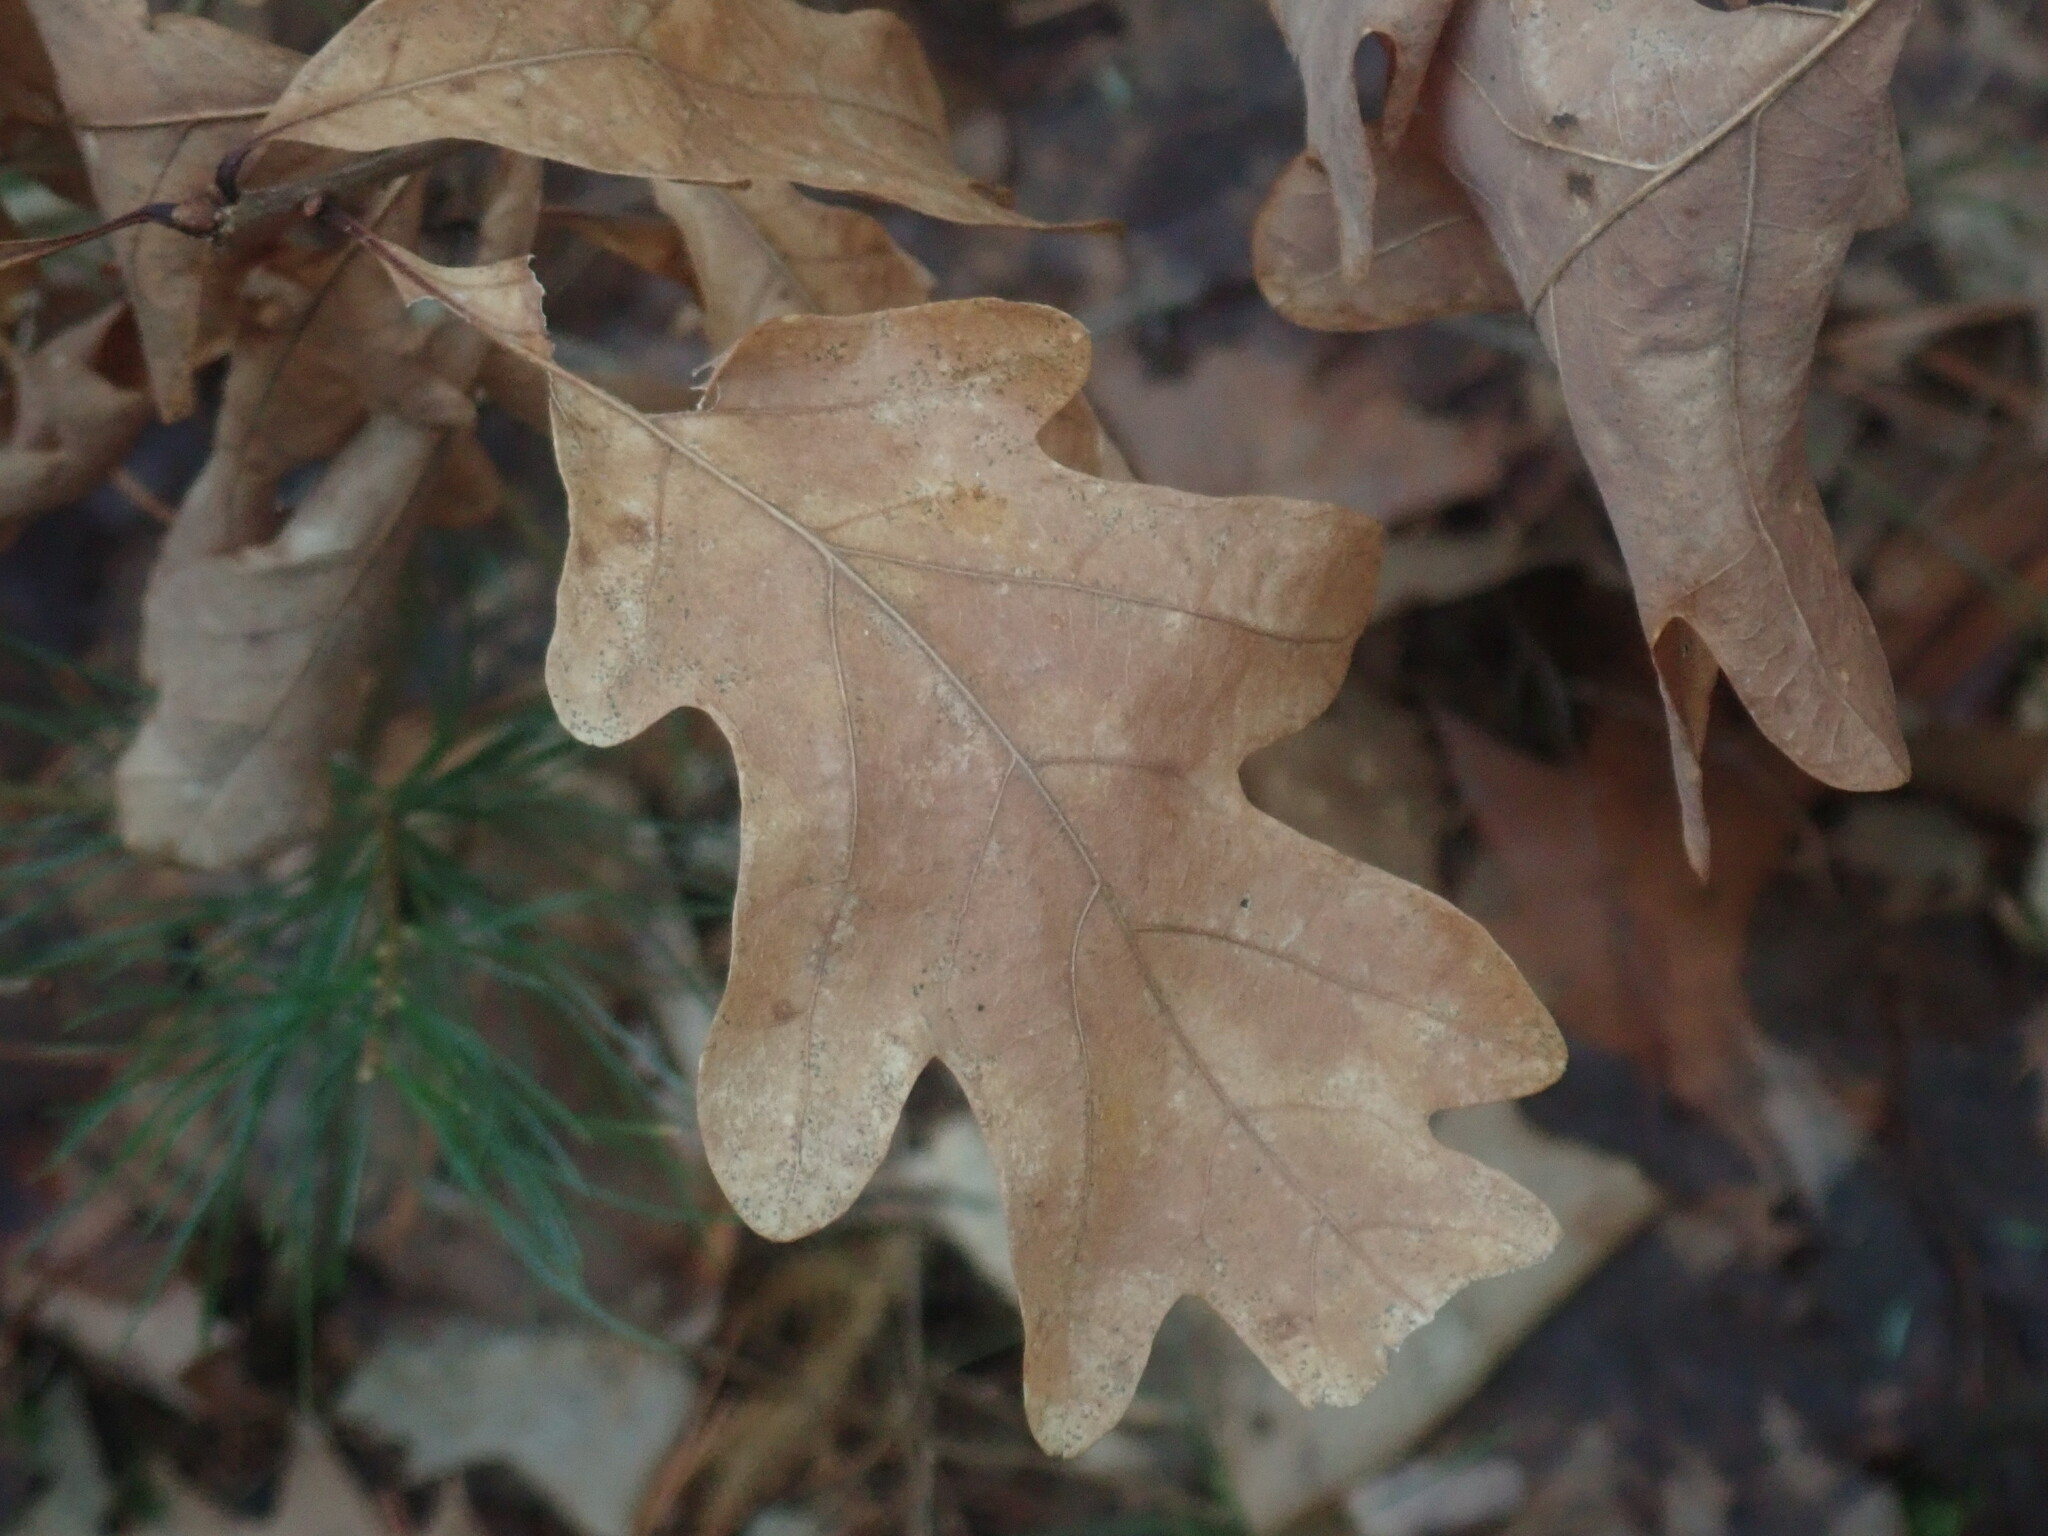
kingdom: Plantae
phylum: Tracheophyta
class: Magnoliopsida
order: Fagales
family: Fagaceae
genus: Quercus
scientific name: Quercus alba
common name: White oak
